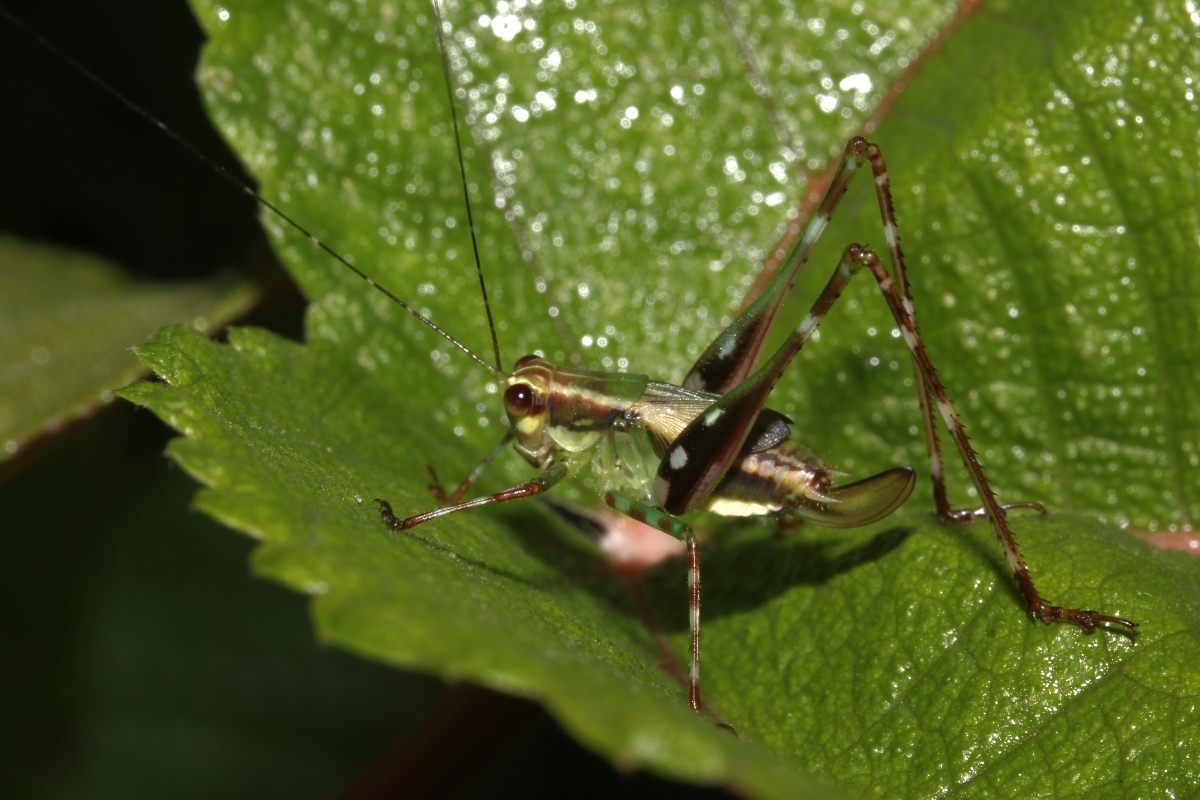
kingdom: Animalia
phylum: Arthropoda
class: Insecta
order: Orthoptera
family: Tettigoniidae
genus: Zenirella
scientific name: Zenirella punctata
